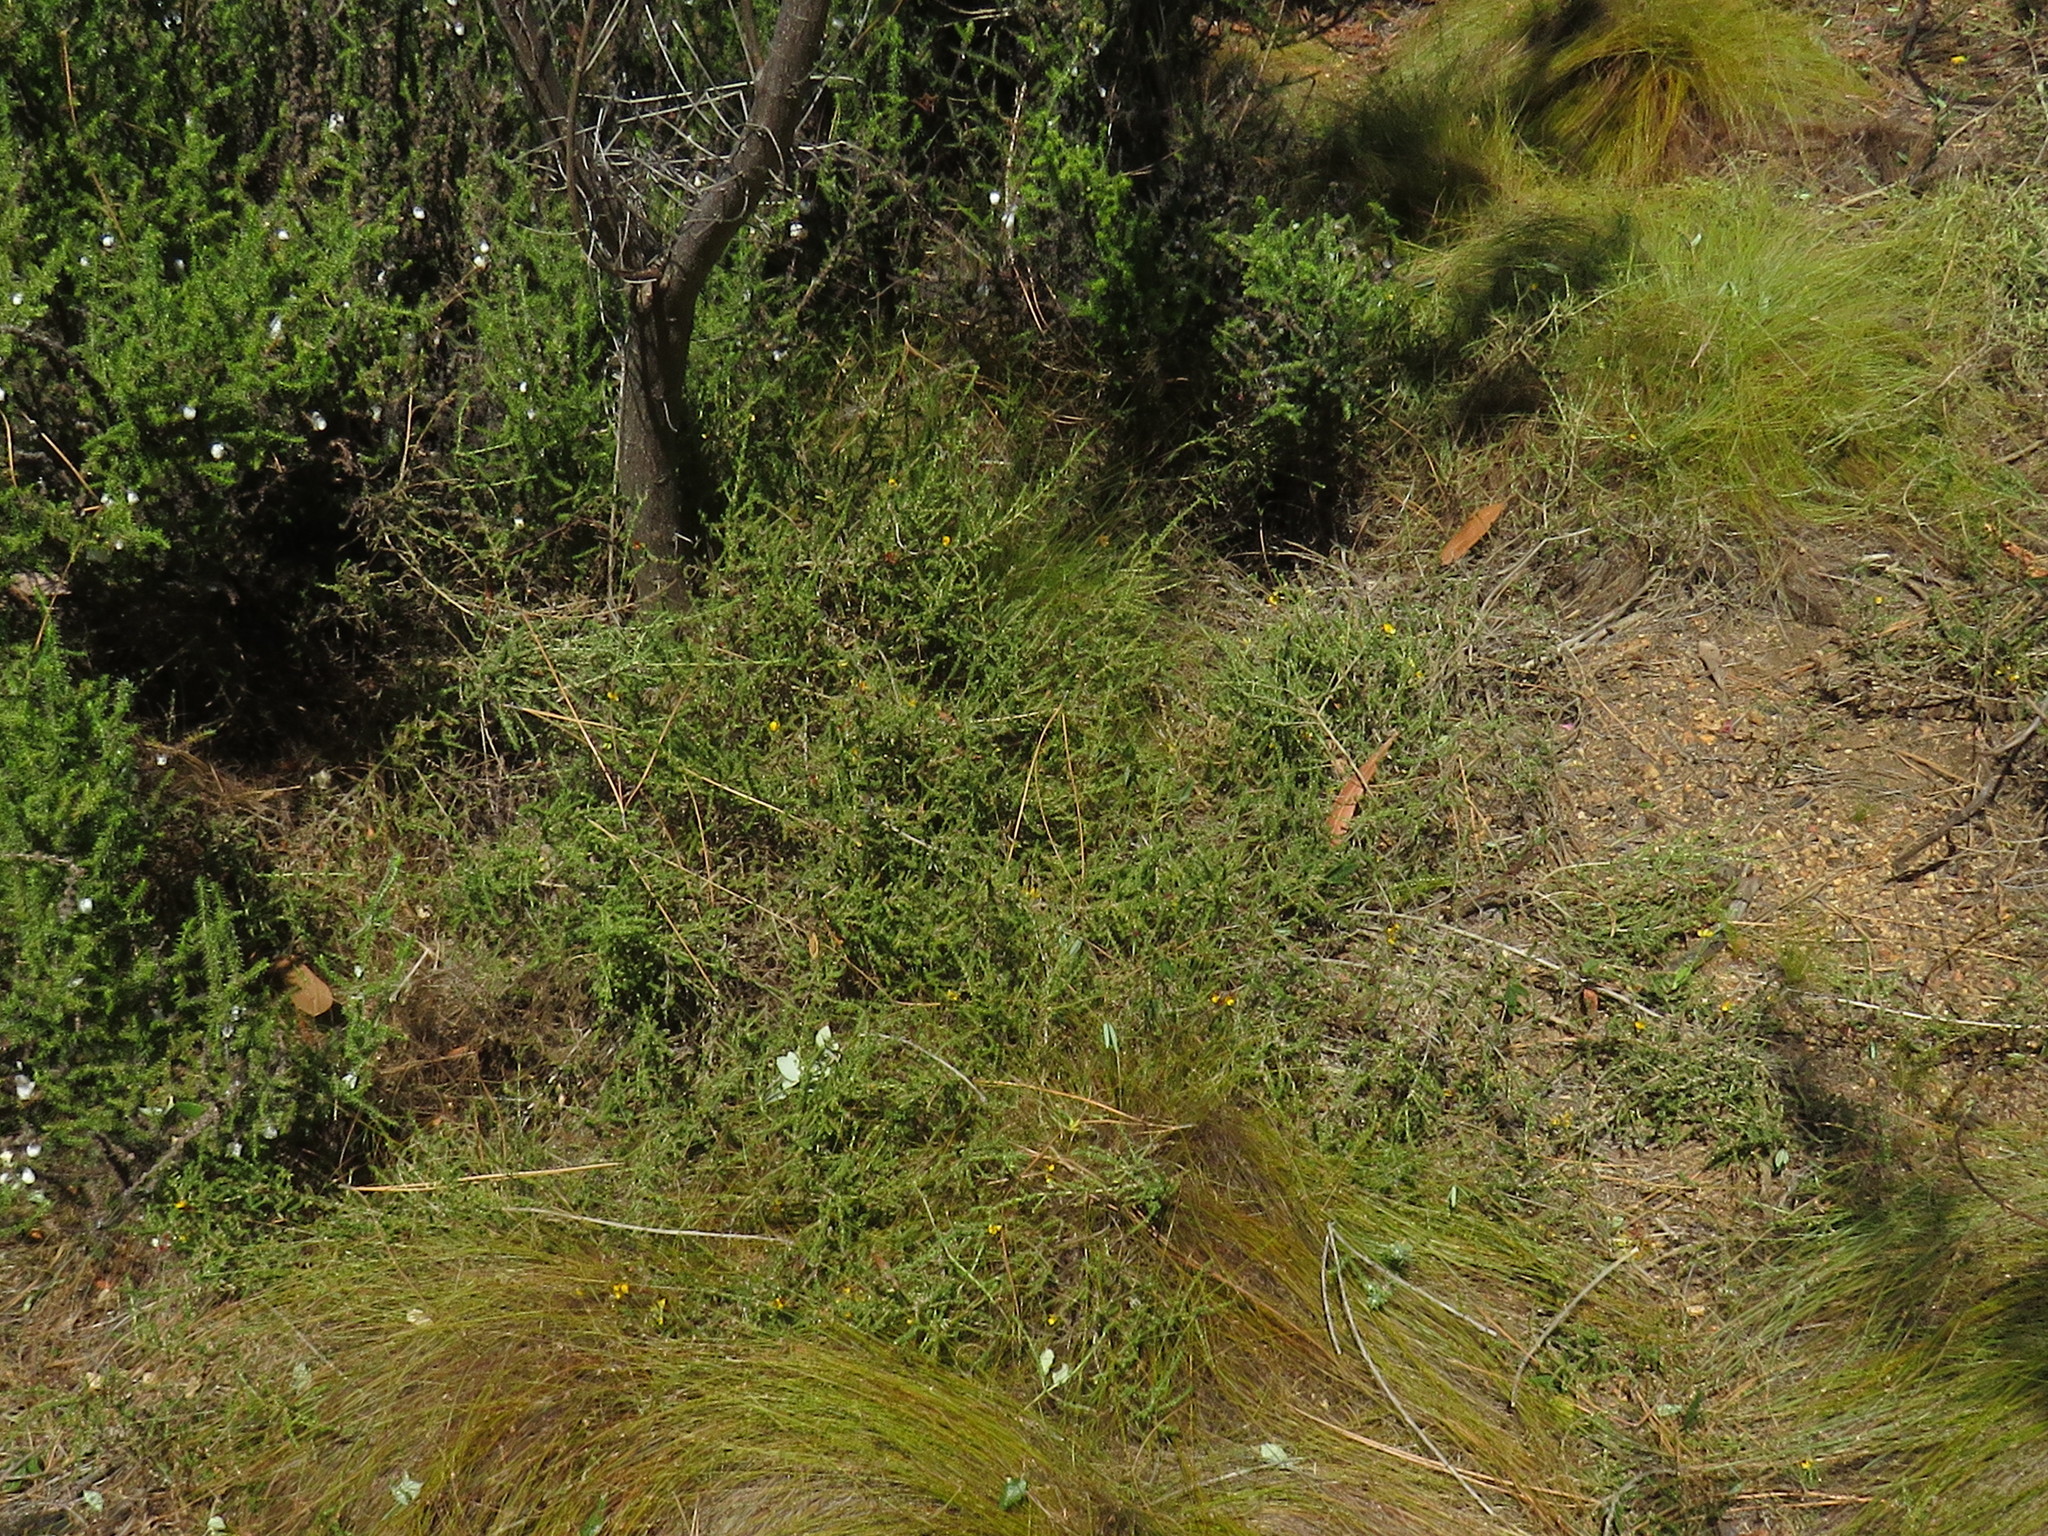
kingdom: Plantae
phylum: Tracheophyta
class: Magnoliopsida
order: Fabales
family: Fabaceae
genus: Aspalathus
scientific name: Aspalathus divaricata
